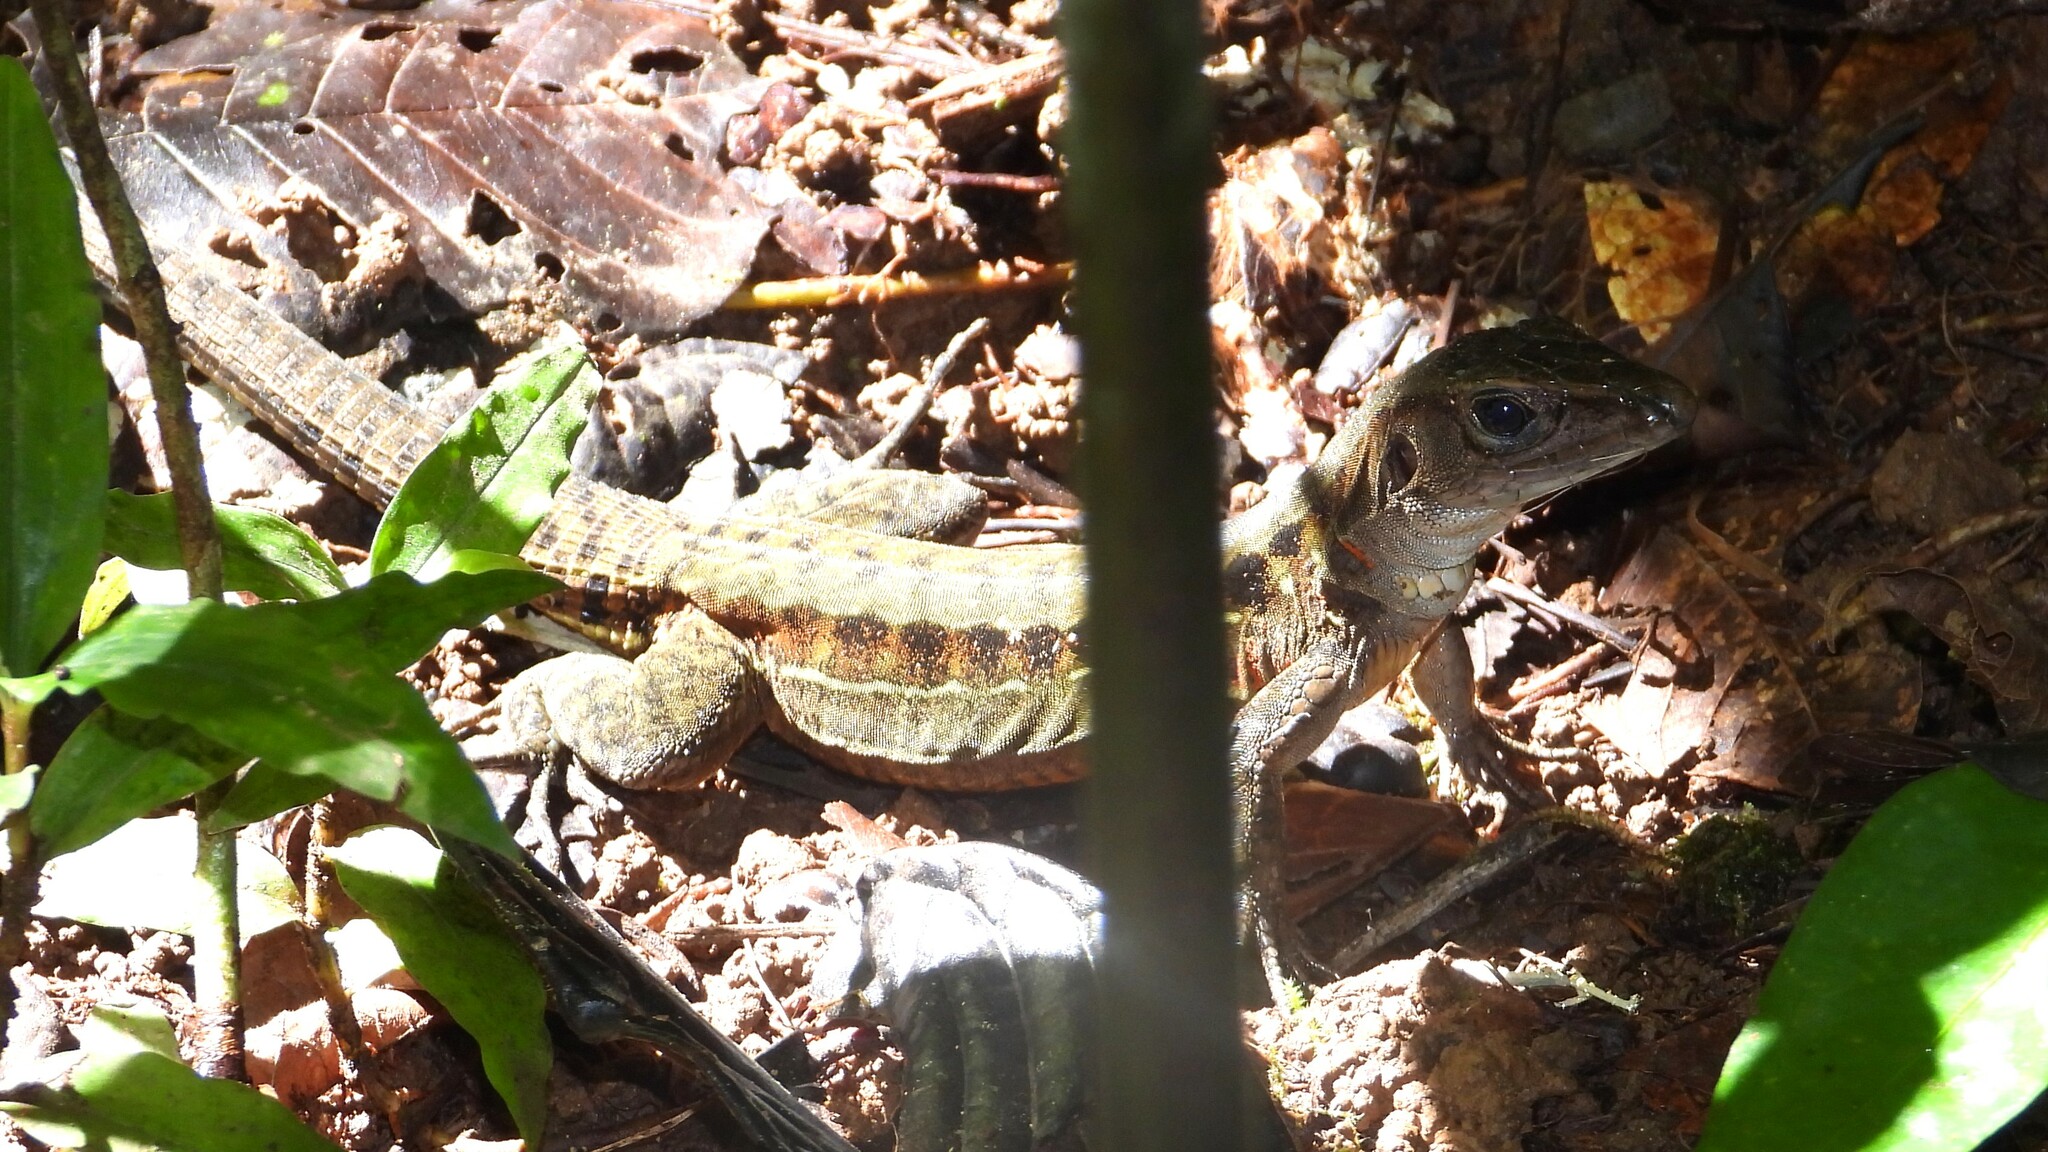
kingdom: Animalia
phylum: Chordata
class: Squamata
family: Teiidae
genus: Holcosus
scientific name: Holcosus festivus
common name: Middle american ameiva
